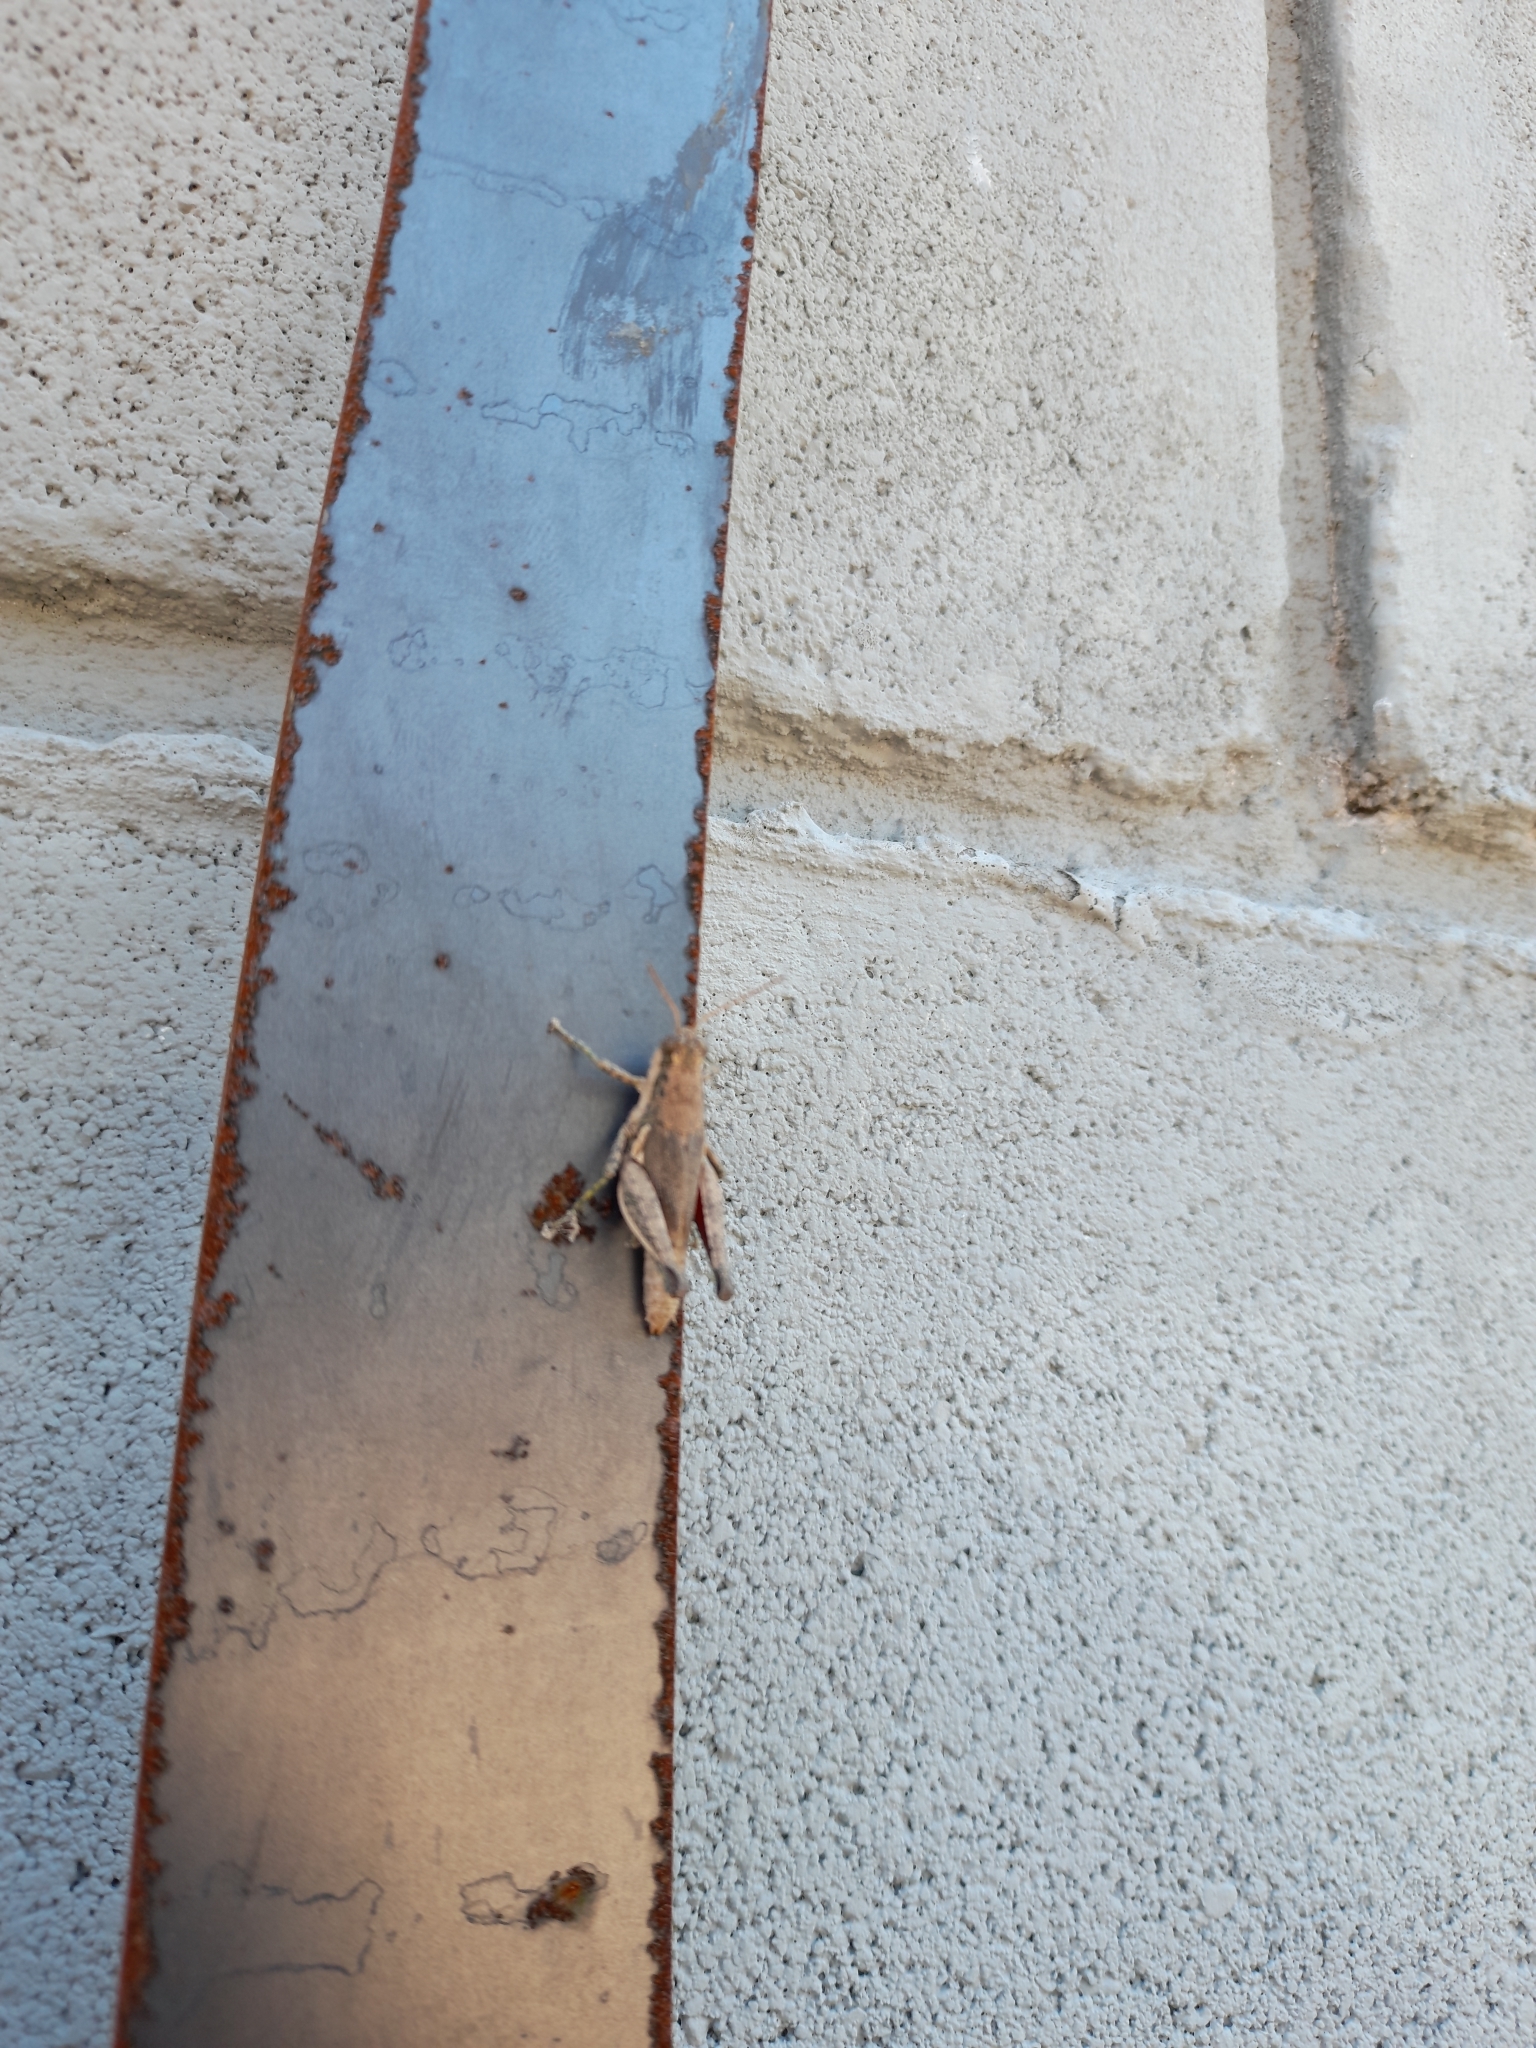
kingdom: Animalia
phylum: Arthropoda
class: Insecta
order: Orthoptera
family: Acrididae
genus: Dichroplus
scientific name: Dichroplus schulzi
